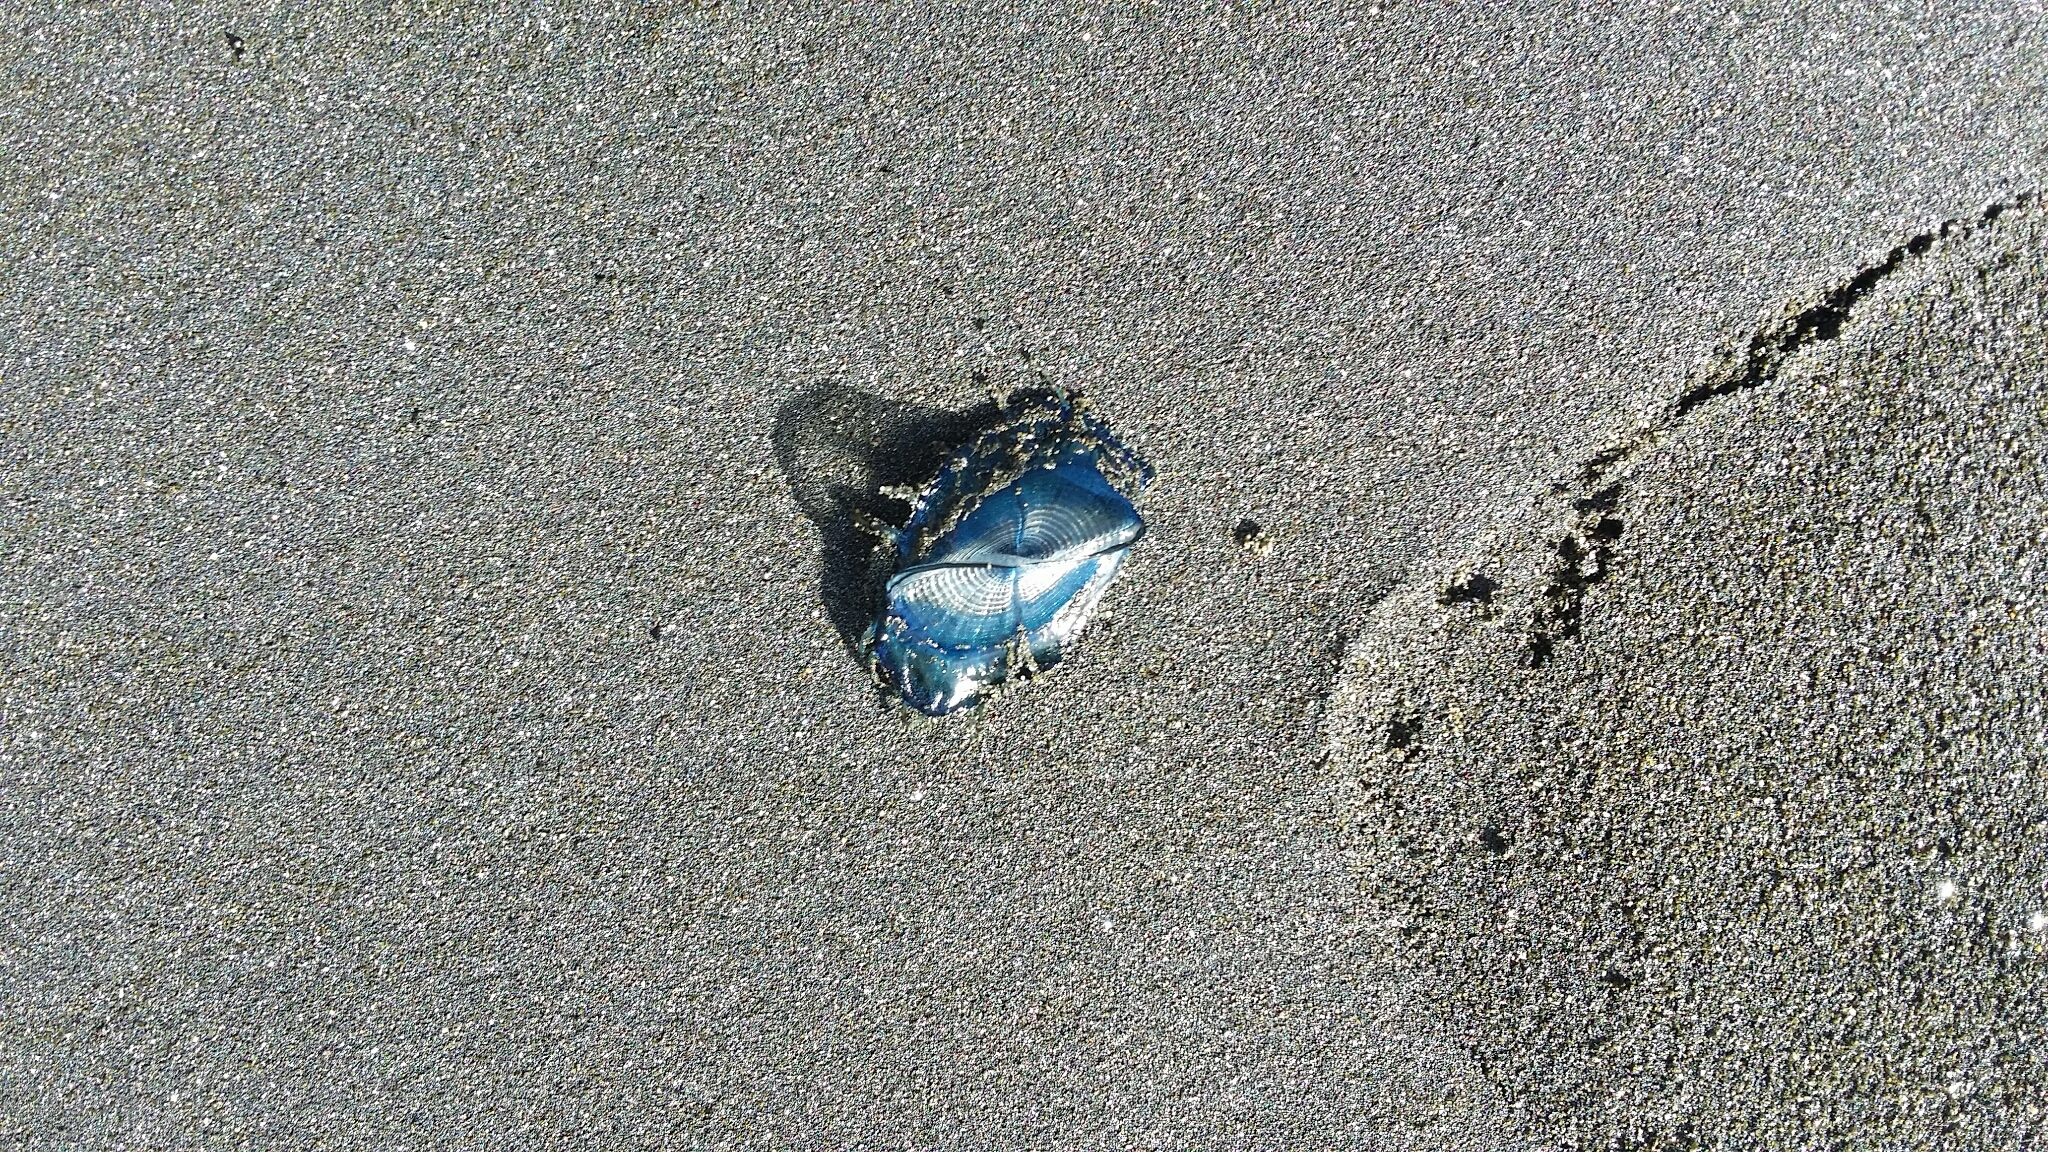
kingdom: Animalia
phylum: Cnidaria
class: Hydrozoa
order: Anthoathecata
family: Porpitidae
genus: Velella
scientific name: Velella velella
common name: By-the-wind-sailor
